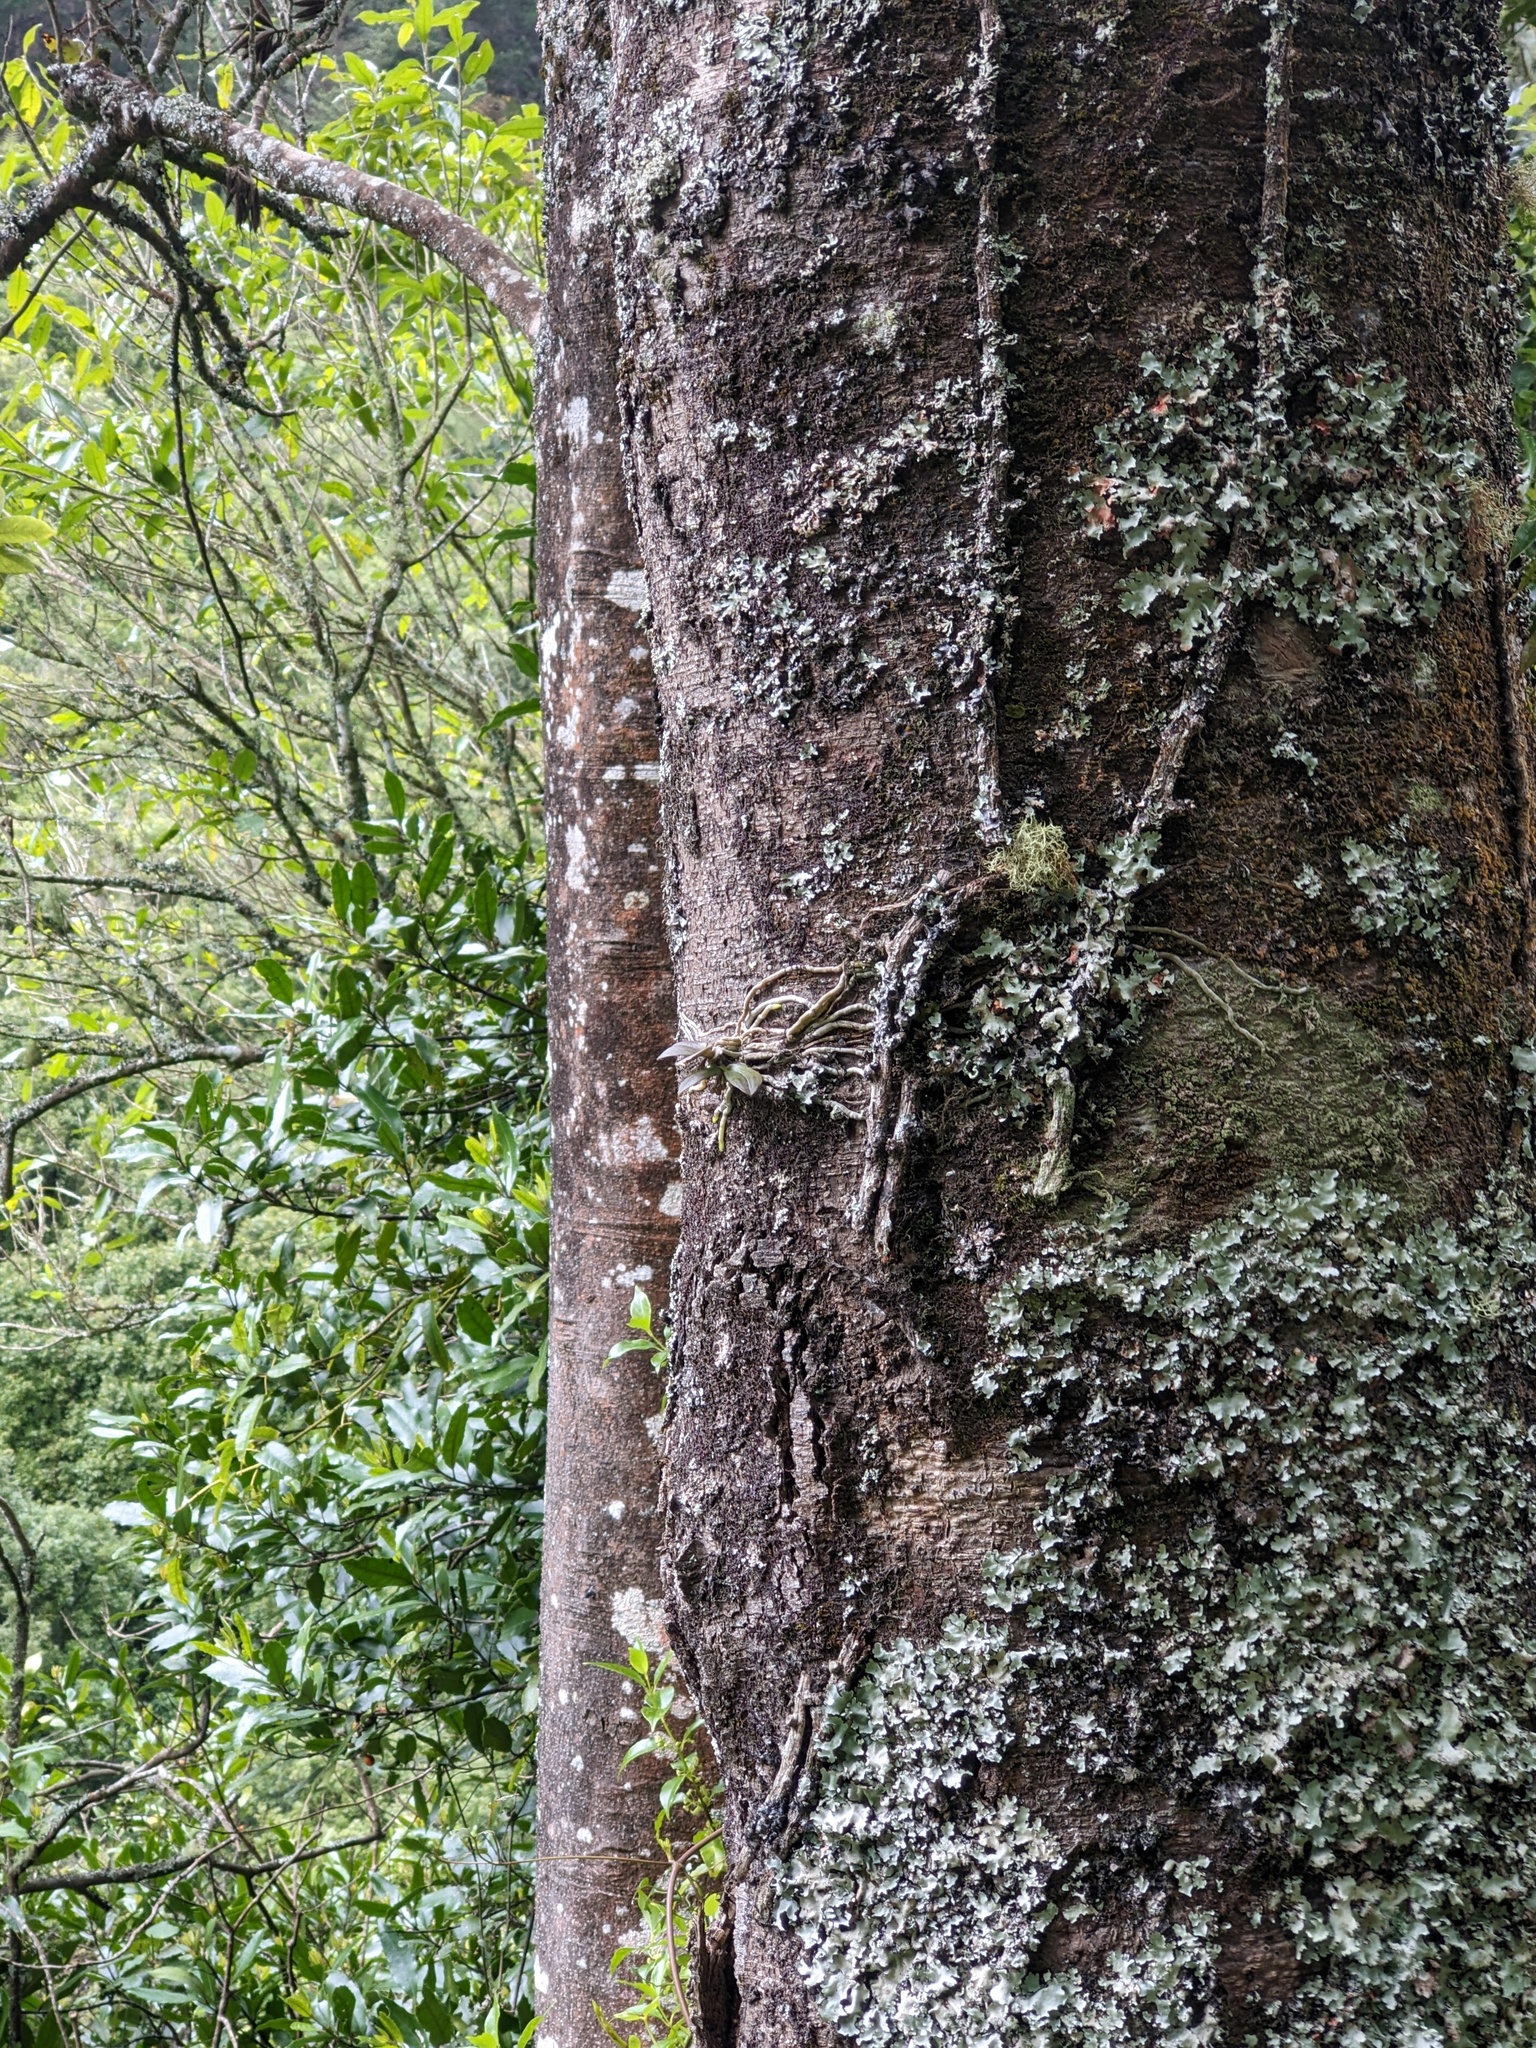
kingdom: Plantae
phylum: Tracheophyta
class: Liliopsida
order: Asparagales
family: Orchidaceae
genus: Drymoanthus
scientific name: Drymoanthus adversus
